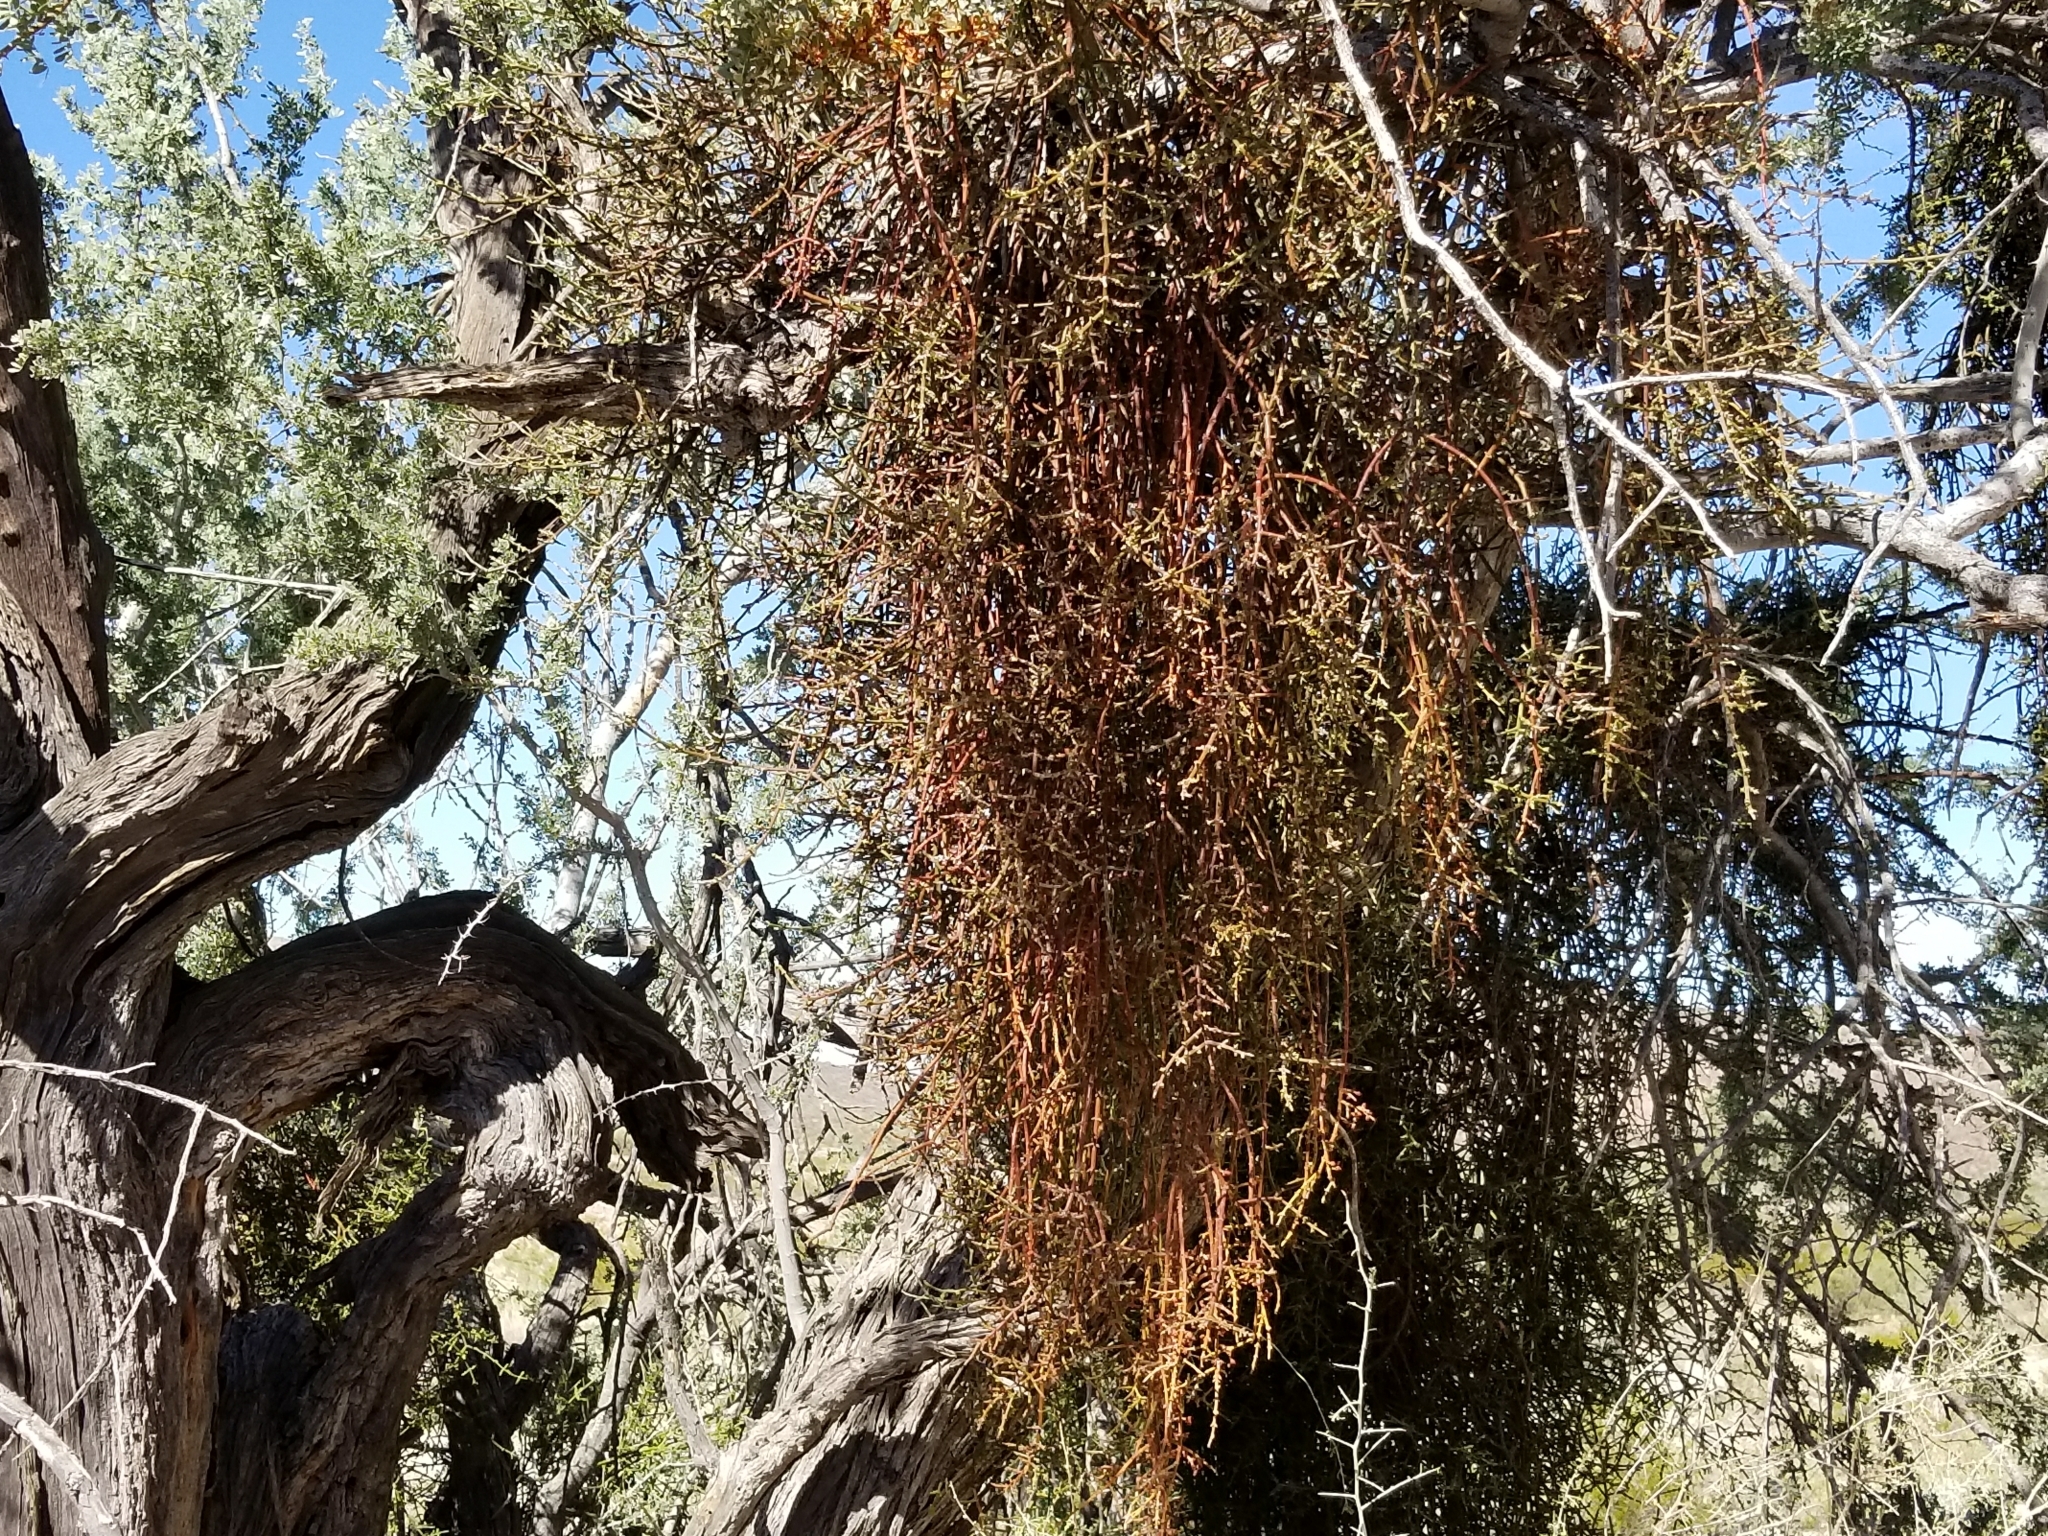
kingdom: Plantae
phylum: Tracheophyta
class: Magnoliopsida
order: Santalales
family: Viscaceae
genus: Phoradendron
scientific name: Phoradendron californicum
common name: Acacia mistletoe
